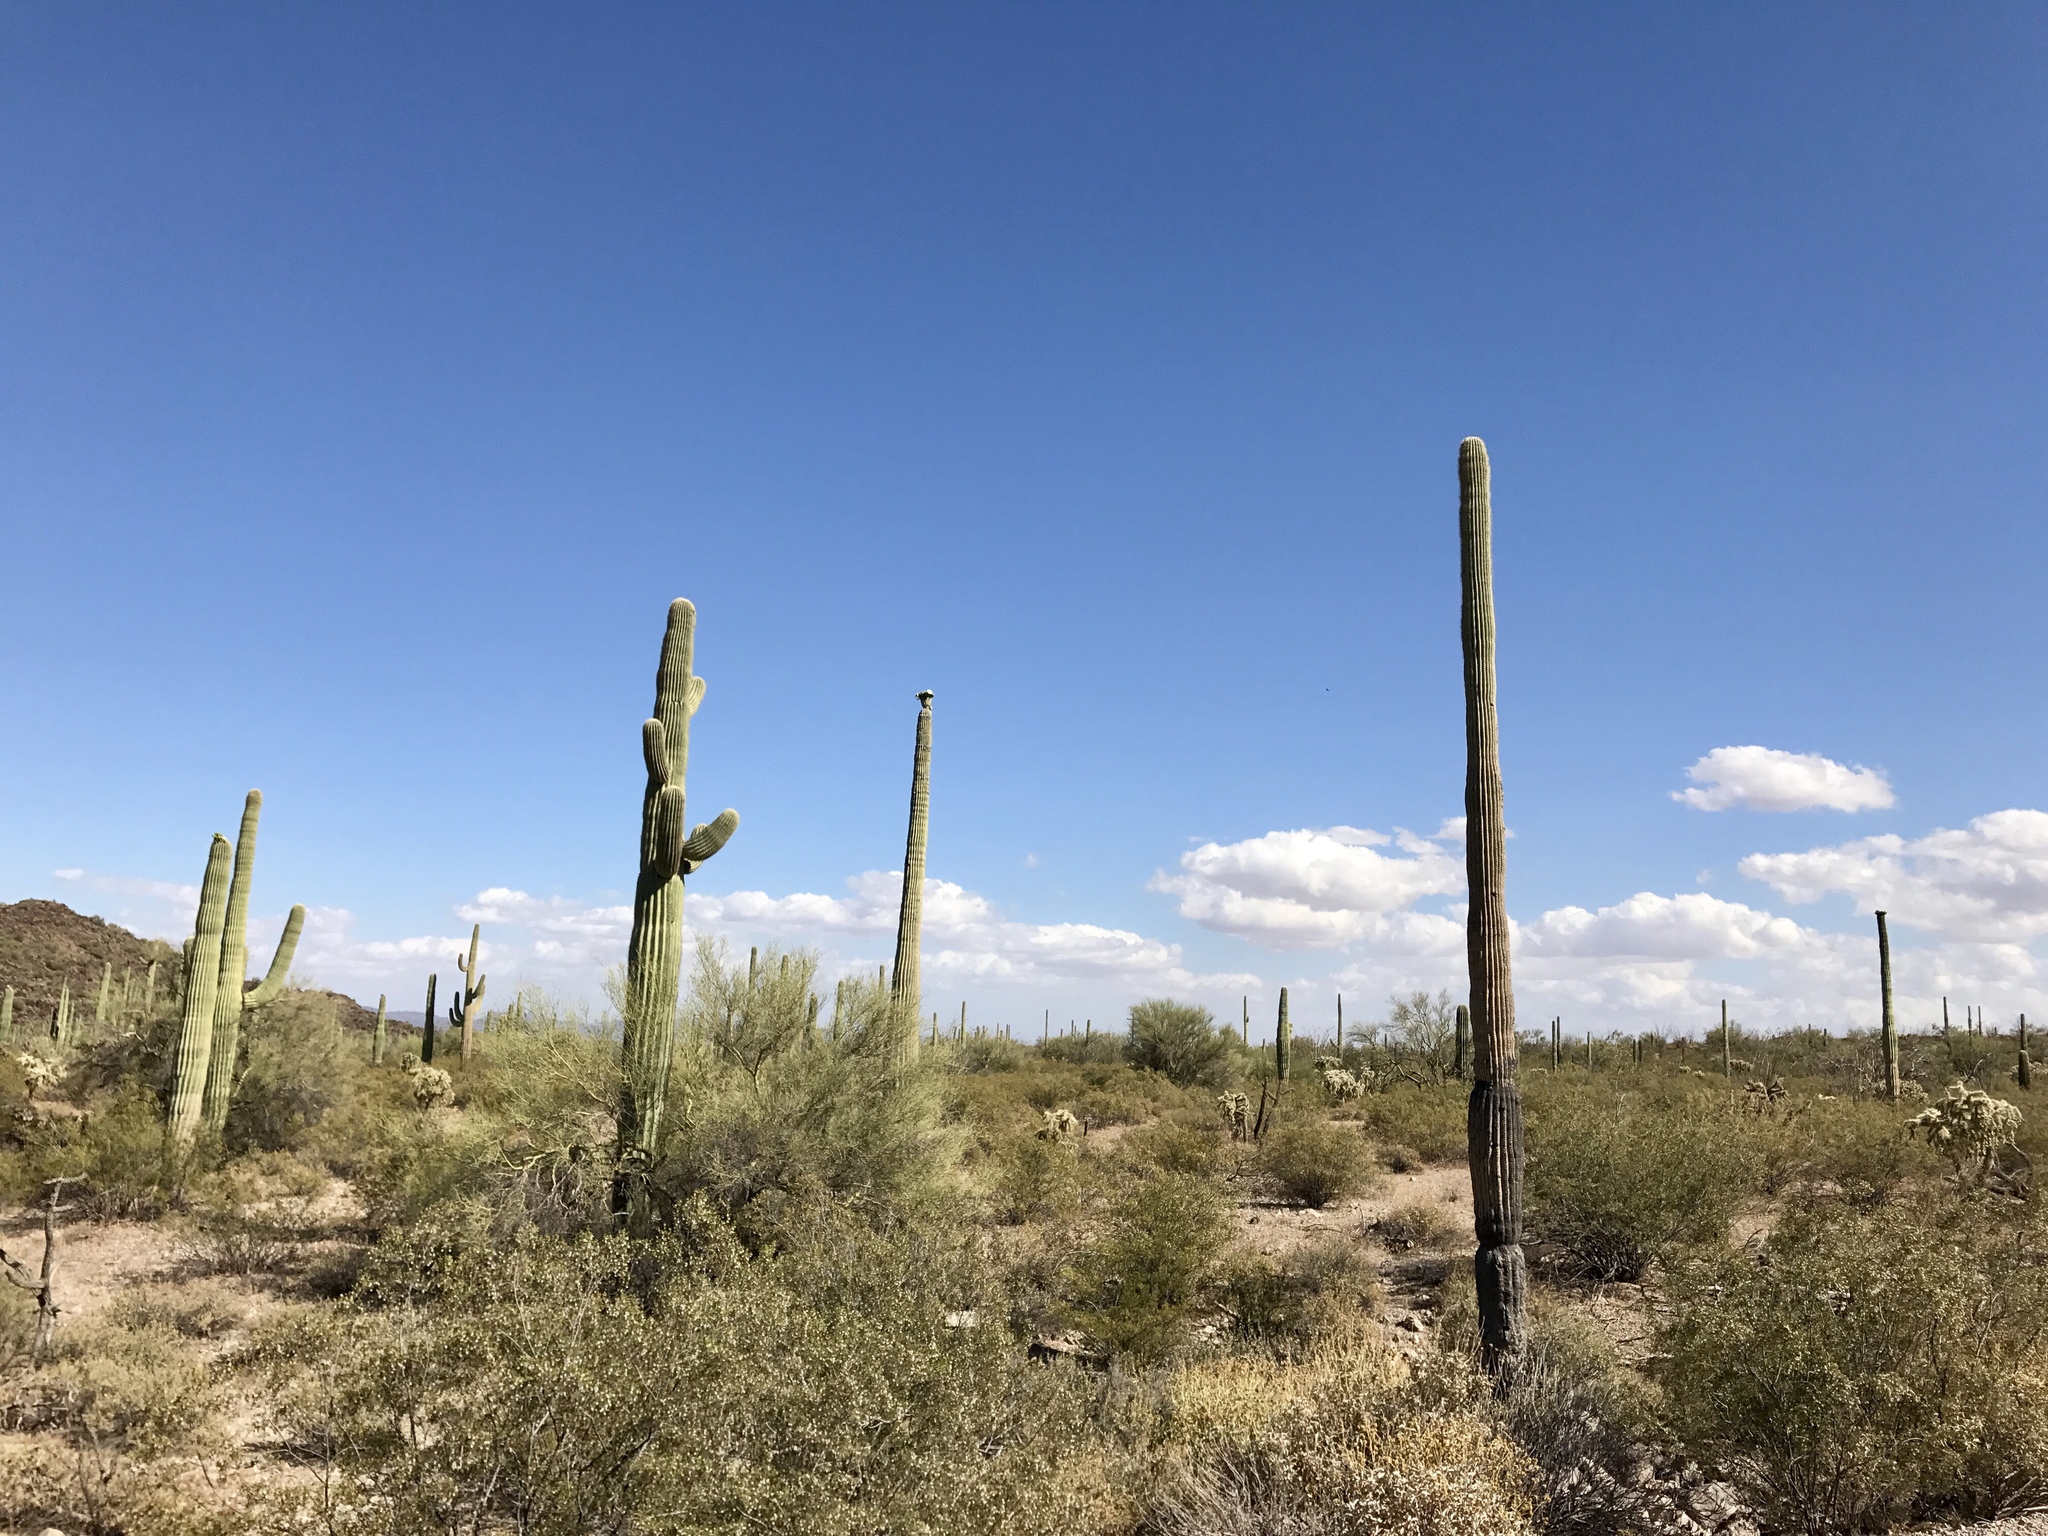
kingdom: Plantae
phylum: Tracheophyta
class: Magnoliopsida
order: Caryophyllales
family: Cactaceae
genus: Carnegiea
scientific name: Carnegiea gigantea
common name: Saguaro
